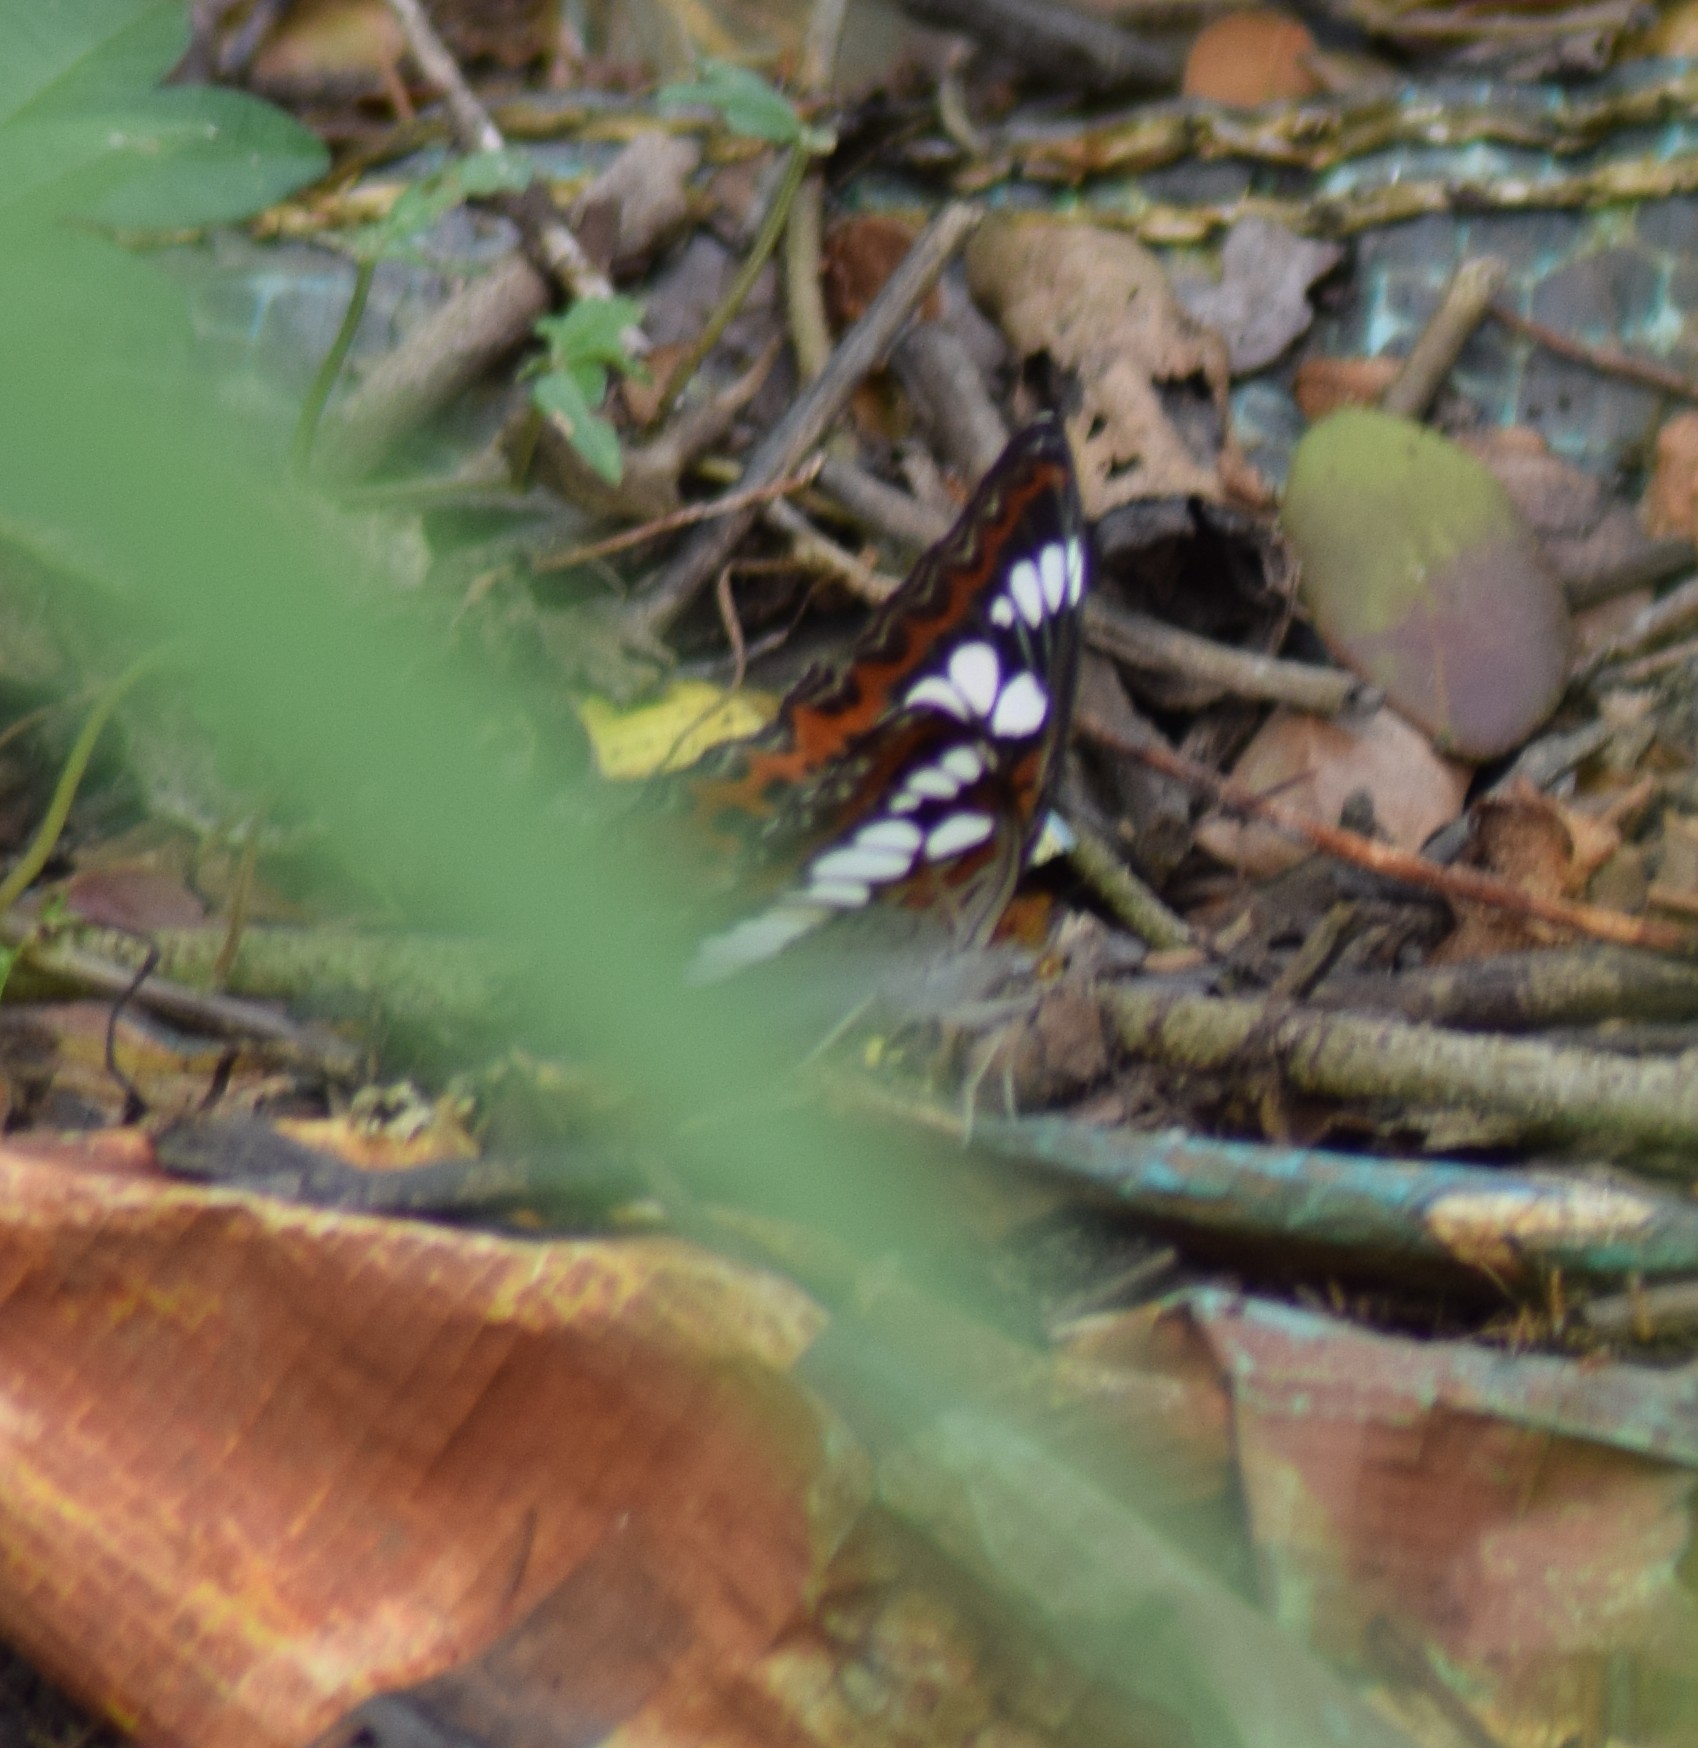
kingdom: Animalia
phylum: Arthropoda
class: Insecta
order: Lepidoptera
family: Nymphalidae
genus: Limenitis
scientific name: Limenitis Moduza procris
